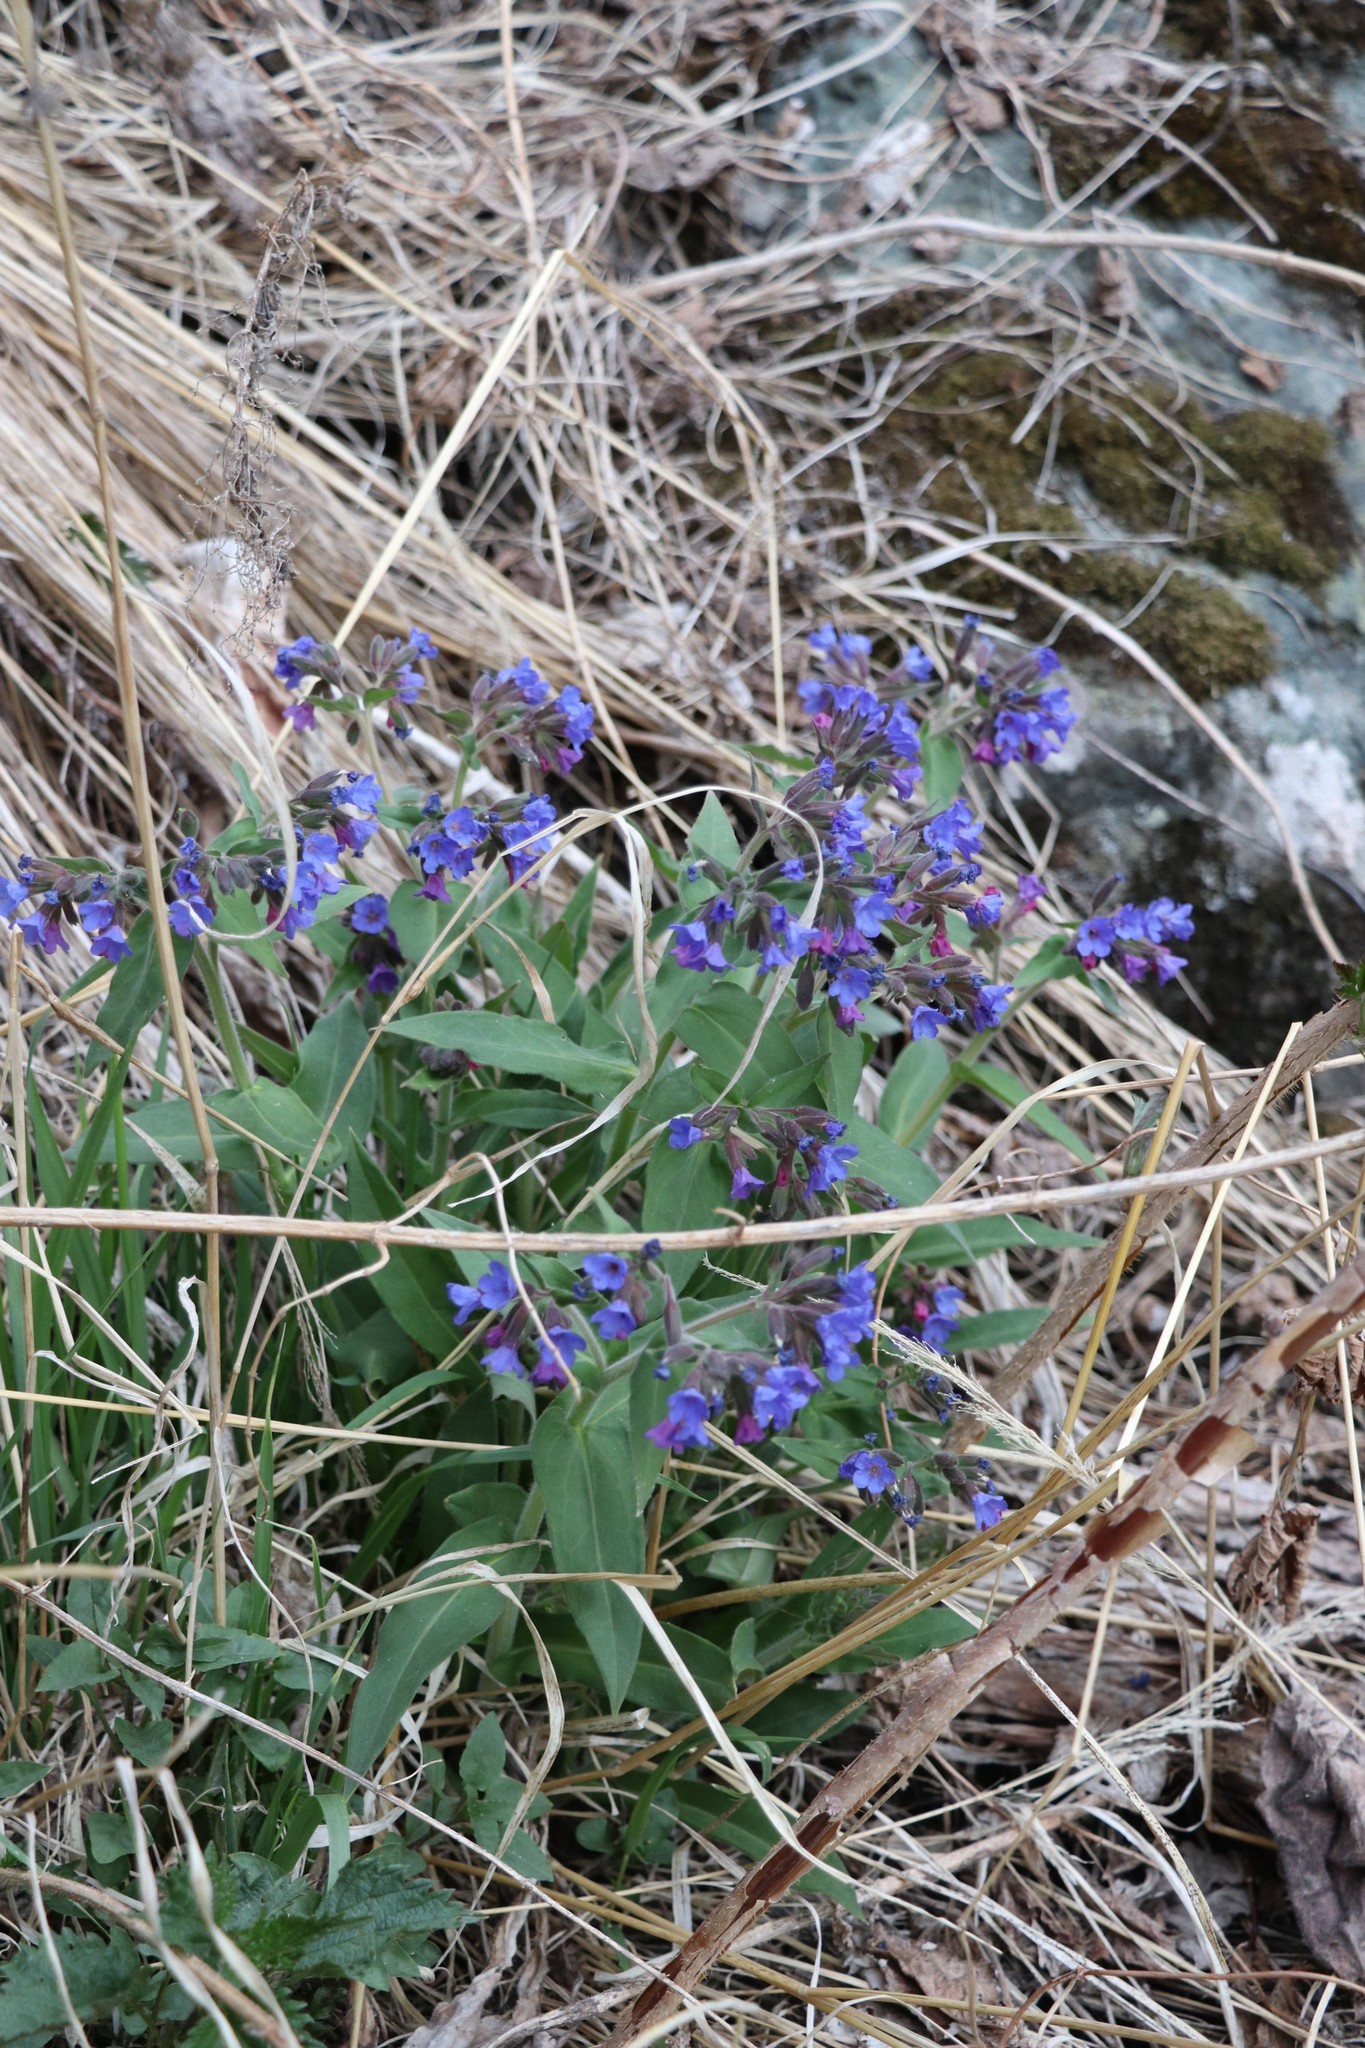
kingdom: Plantae
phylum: Tracheophyta
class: Magnoliopsida
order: Boraginales
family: Boraginaceae
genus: Pulmonaria
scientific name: Pulmonaria mollis
